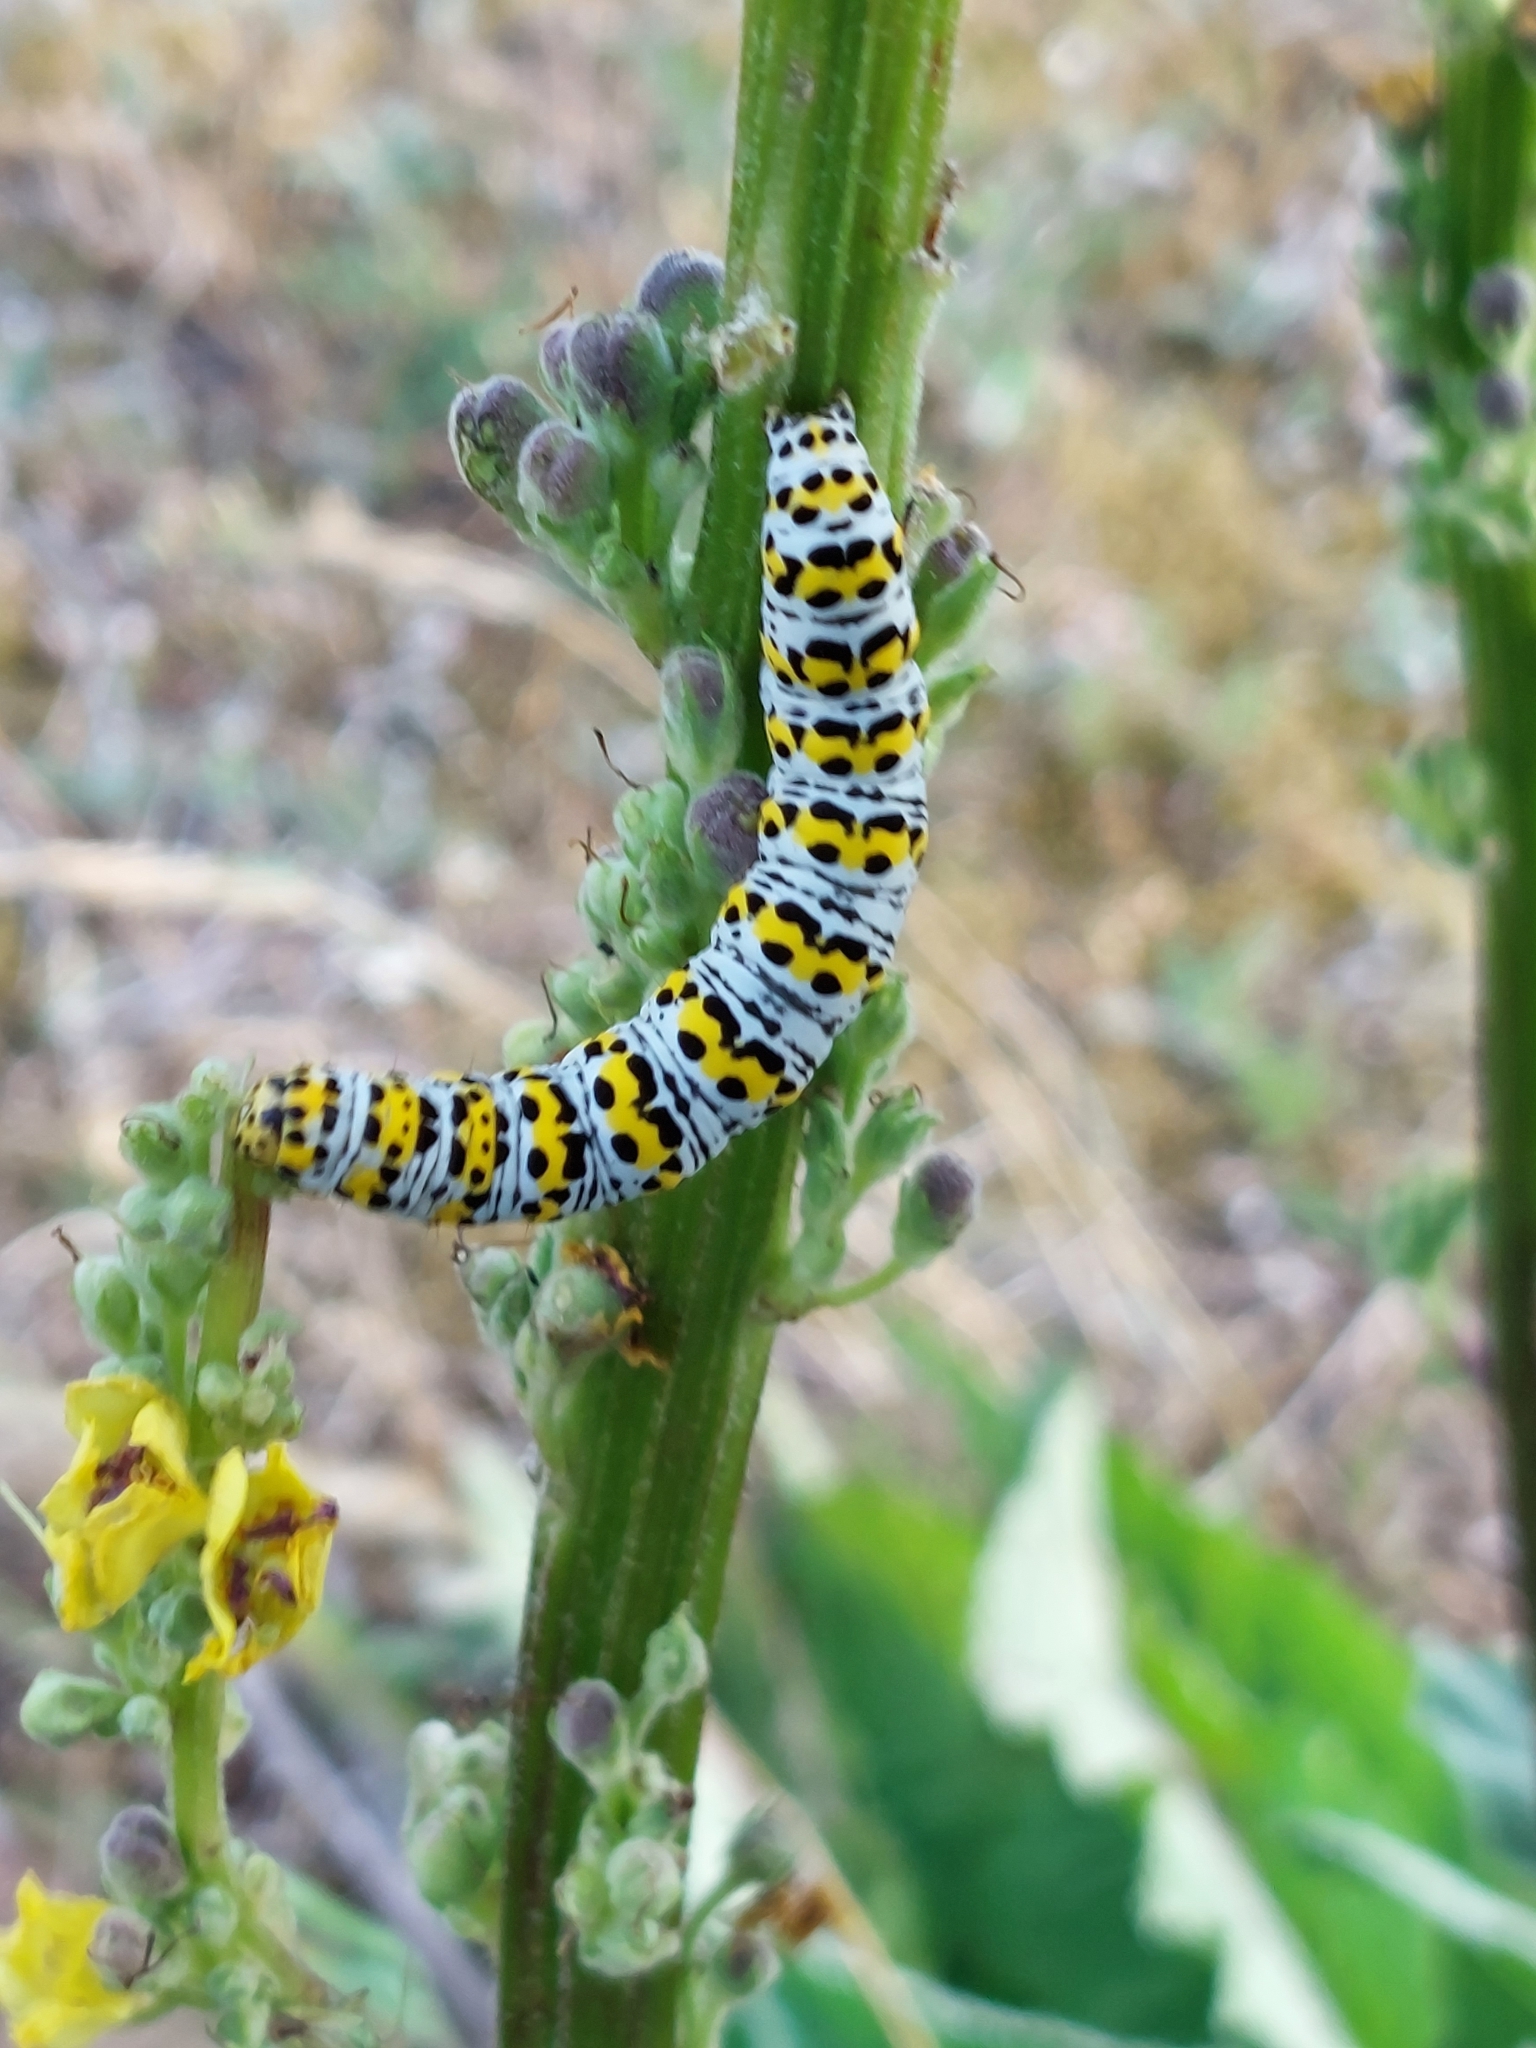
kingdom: Animalia
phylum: Arthropoda
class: Insecta
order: Lepidoptera
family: Noctuidae
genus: Cucullia
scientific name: Cucullia verbasci
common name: Mullein
